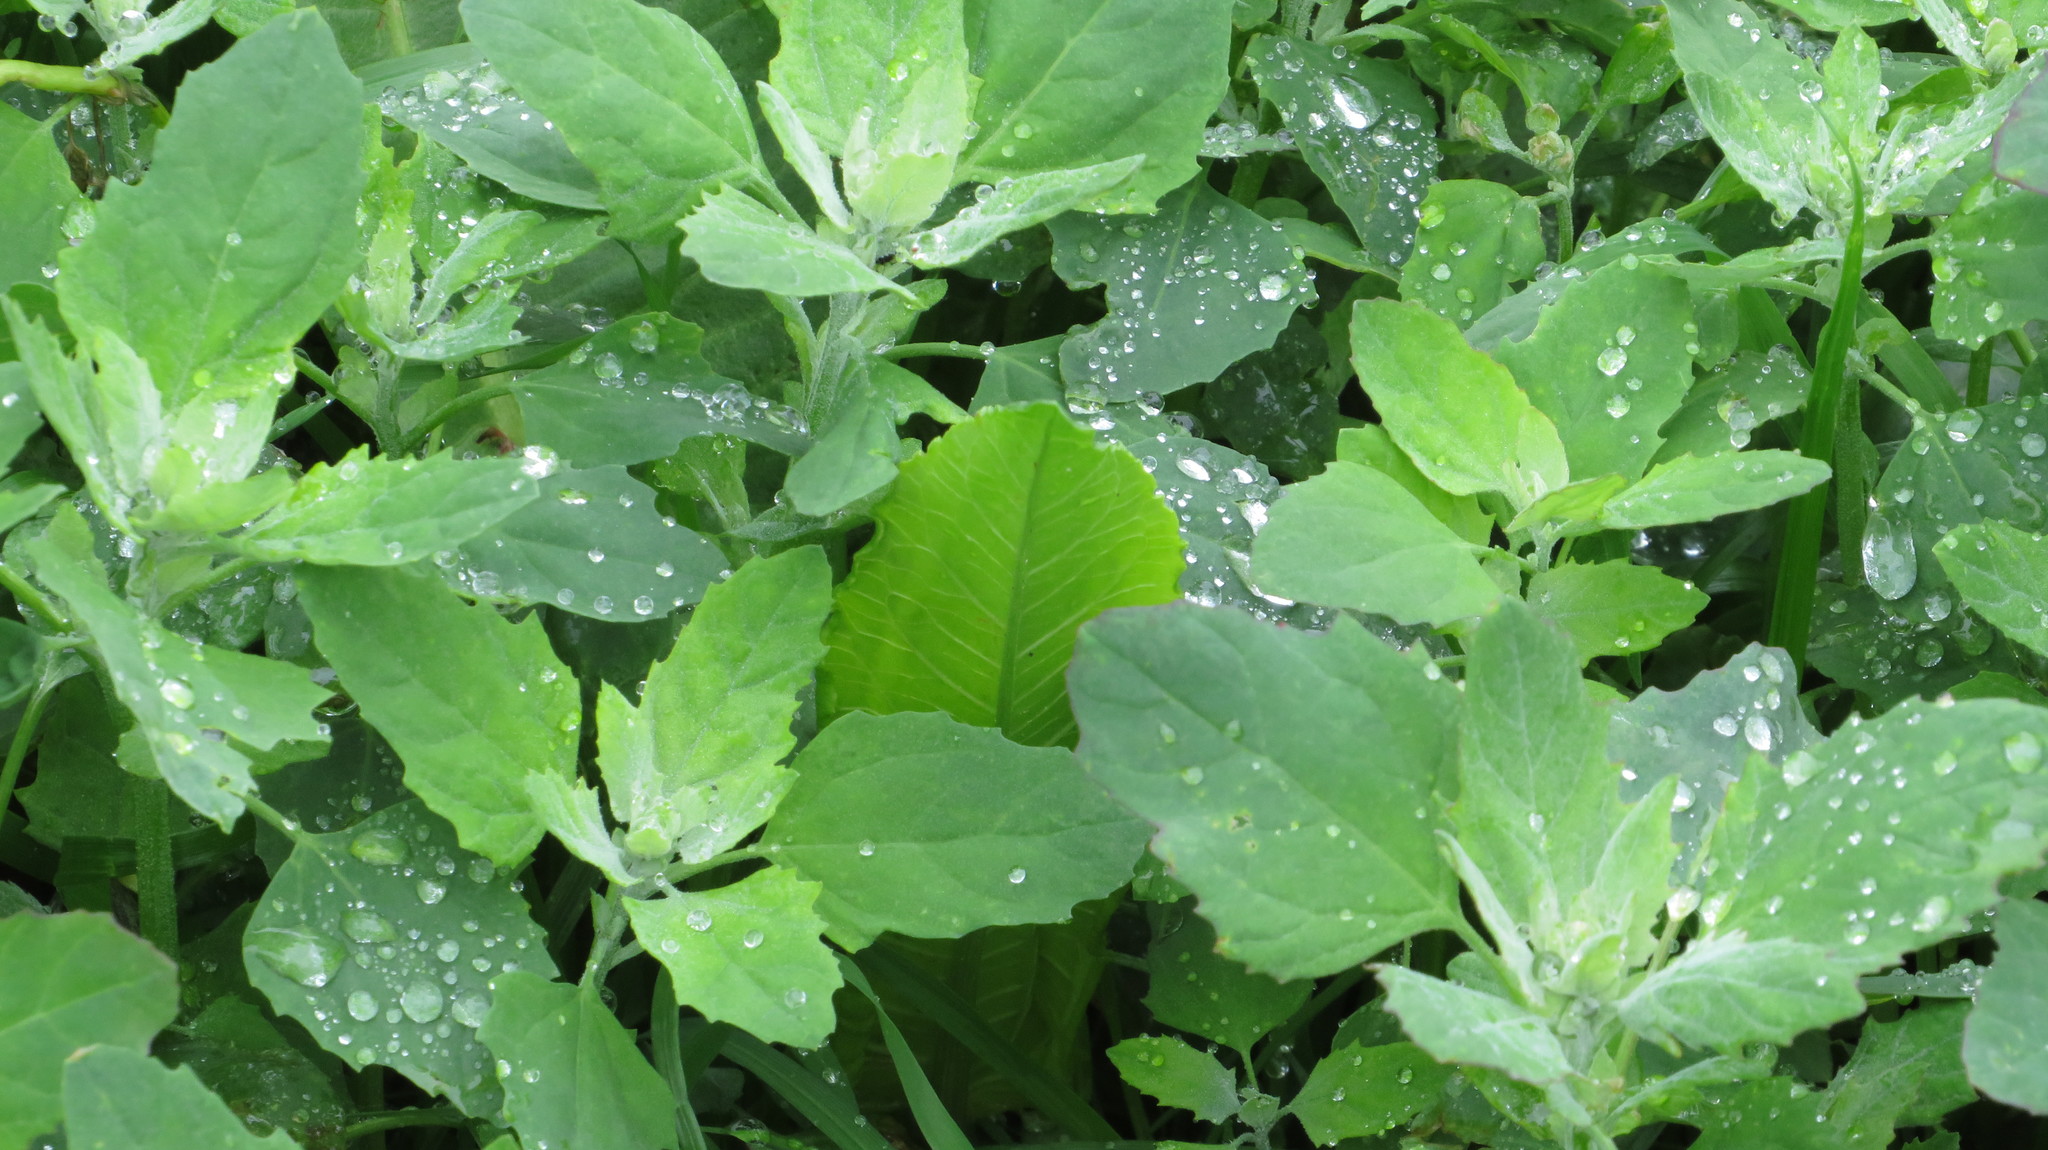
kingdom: Plantae
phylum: Tracheophyta
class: Magnoliopsida
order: Caryophyllales
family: Amaranthaceae
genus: Chenopodium
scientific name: Chenopodium album
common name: Fat-hen
